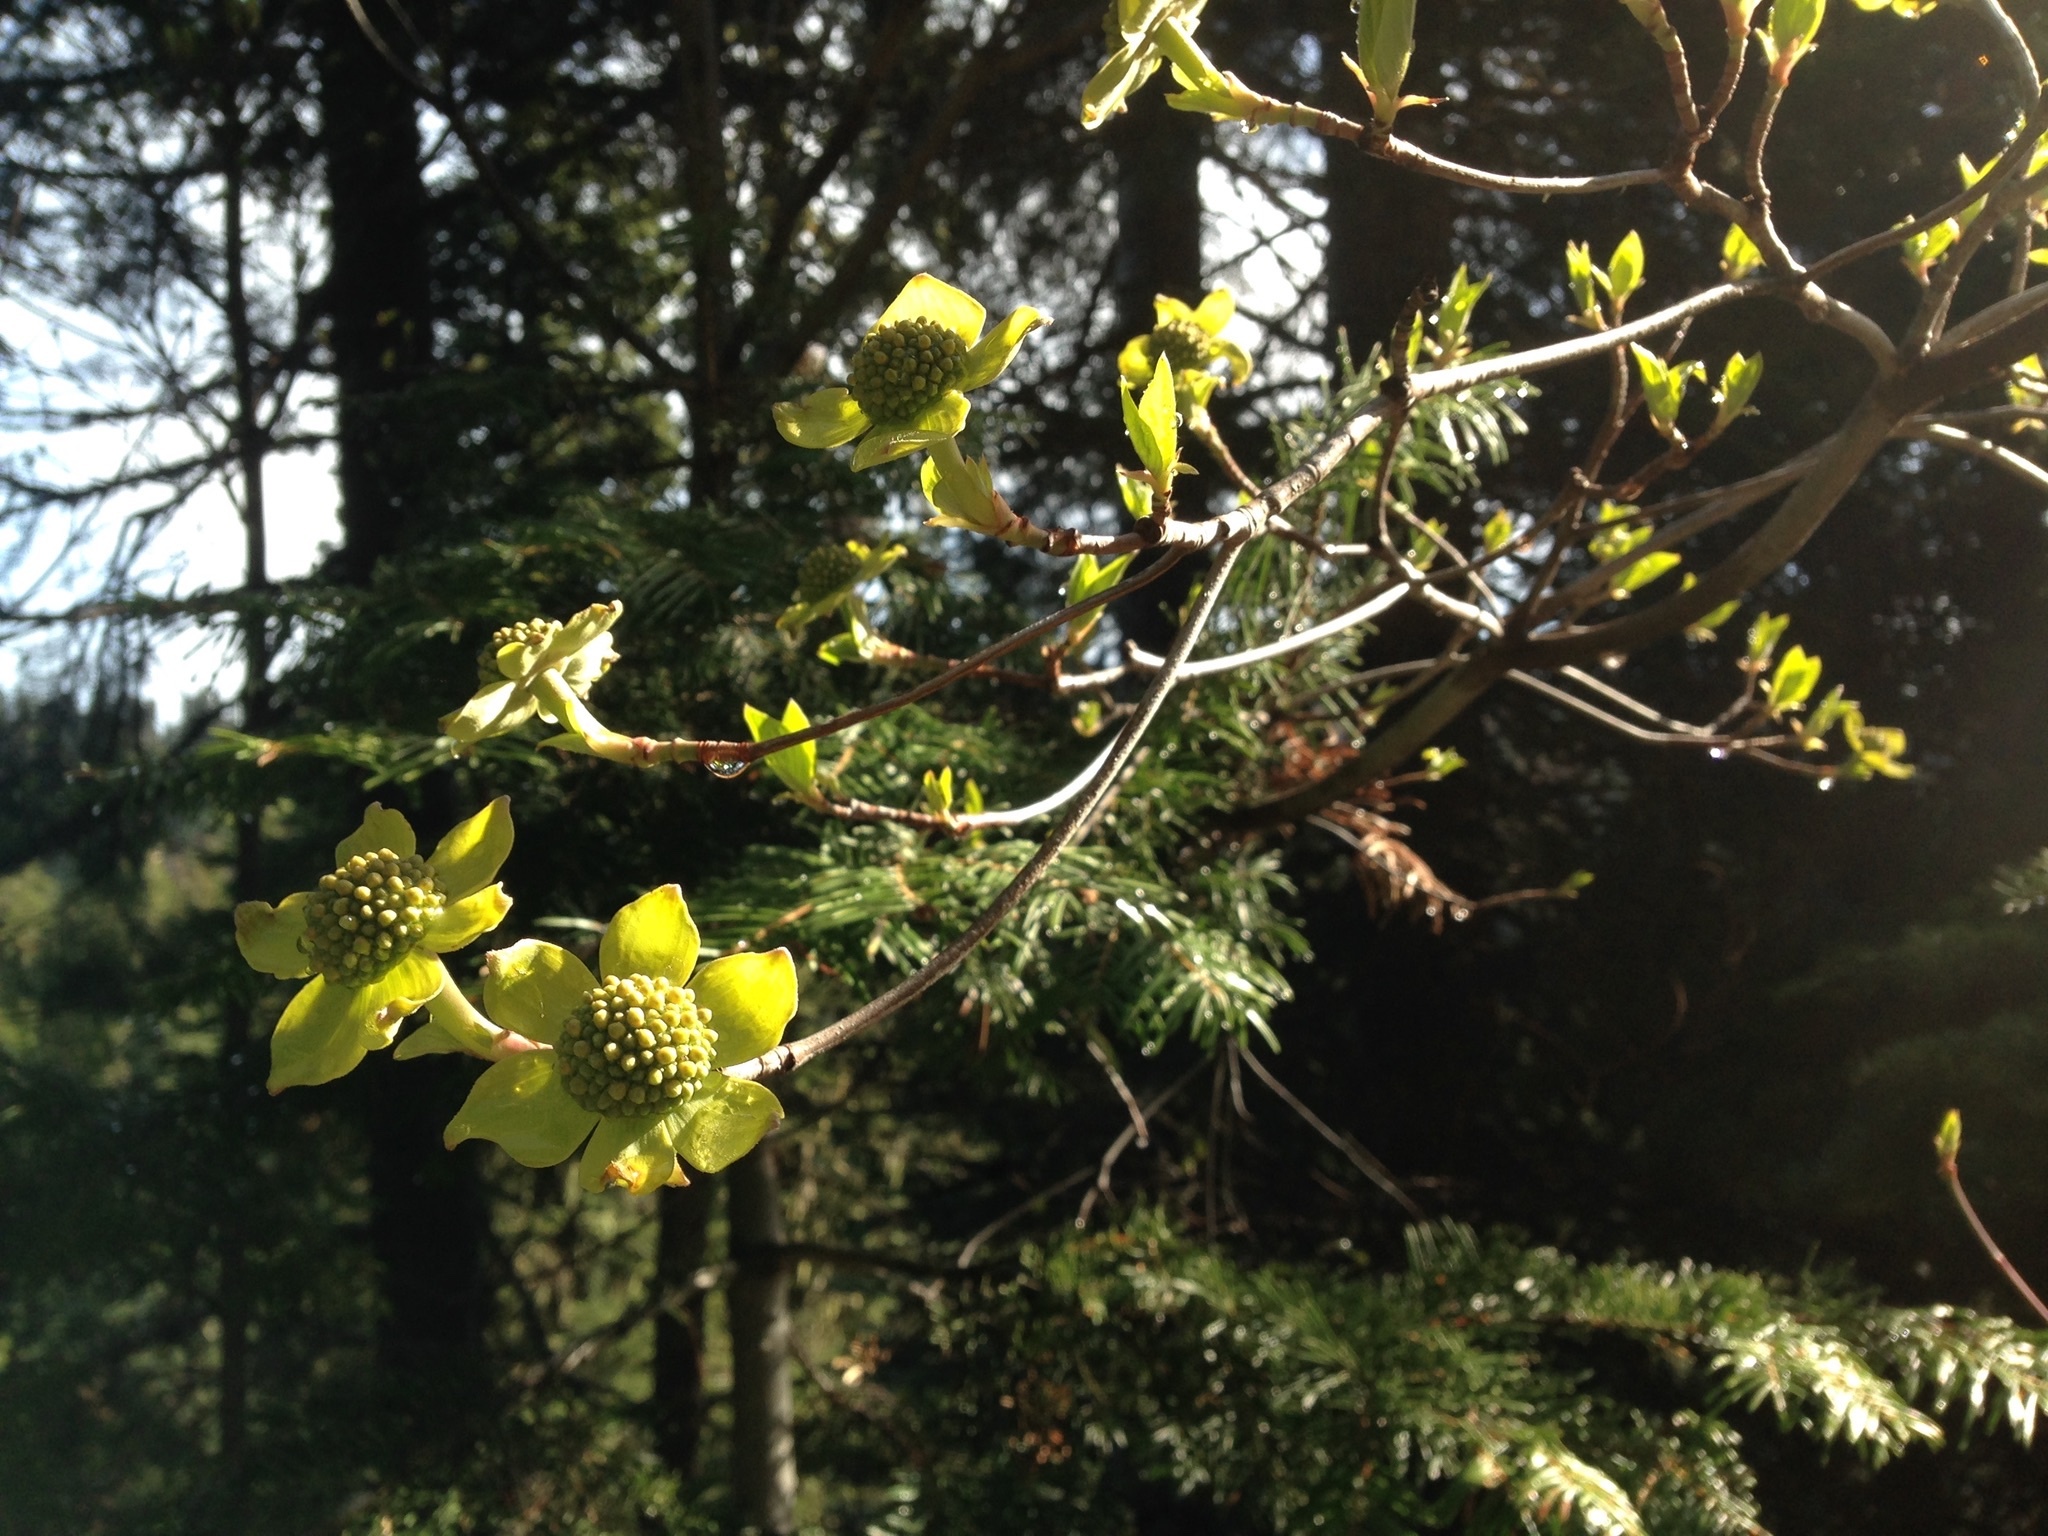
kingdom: Plantae
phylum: Tracheophyta
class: Magnoliopsida
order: Cornales
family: Cornaceae
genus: Cornus
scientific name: Cornus nuttallii
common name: Pacific dogwood
